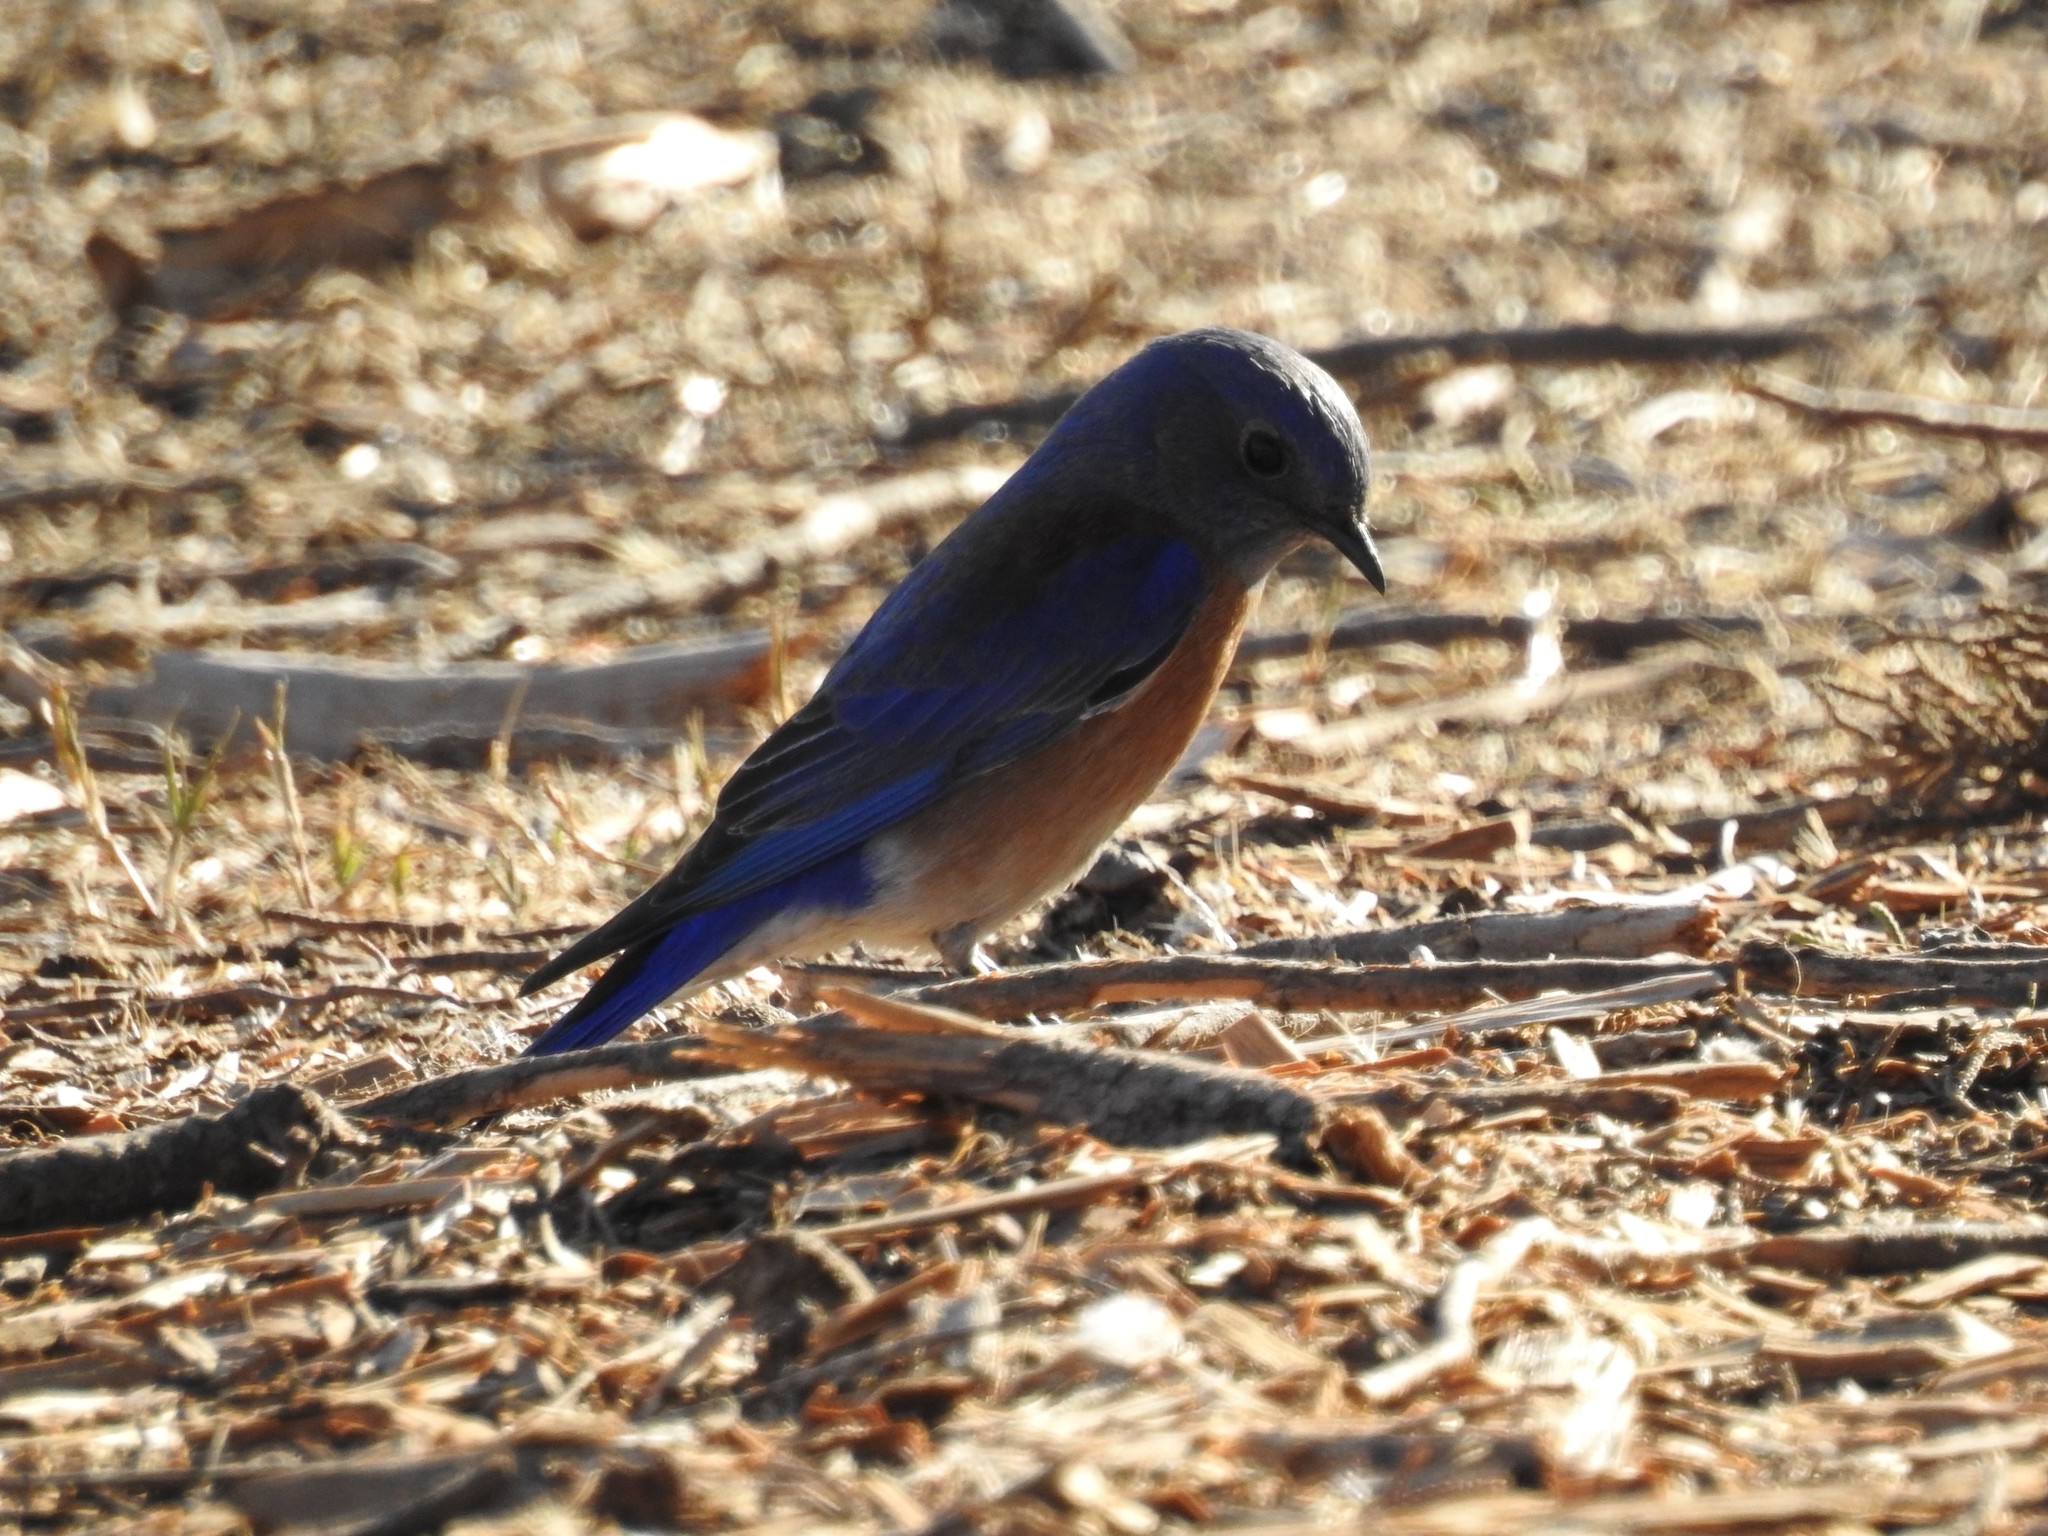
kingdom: Animalia
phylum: Chordata
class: Aves
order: Passeriformes
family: Turdidae
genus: Sialia
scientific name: Sialia mexicana
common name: Western bluebird
